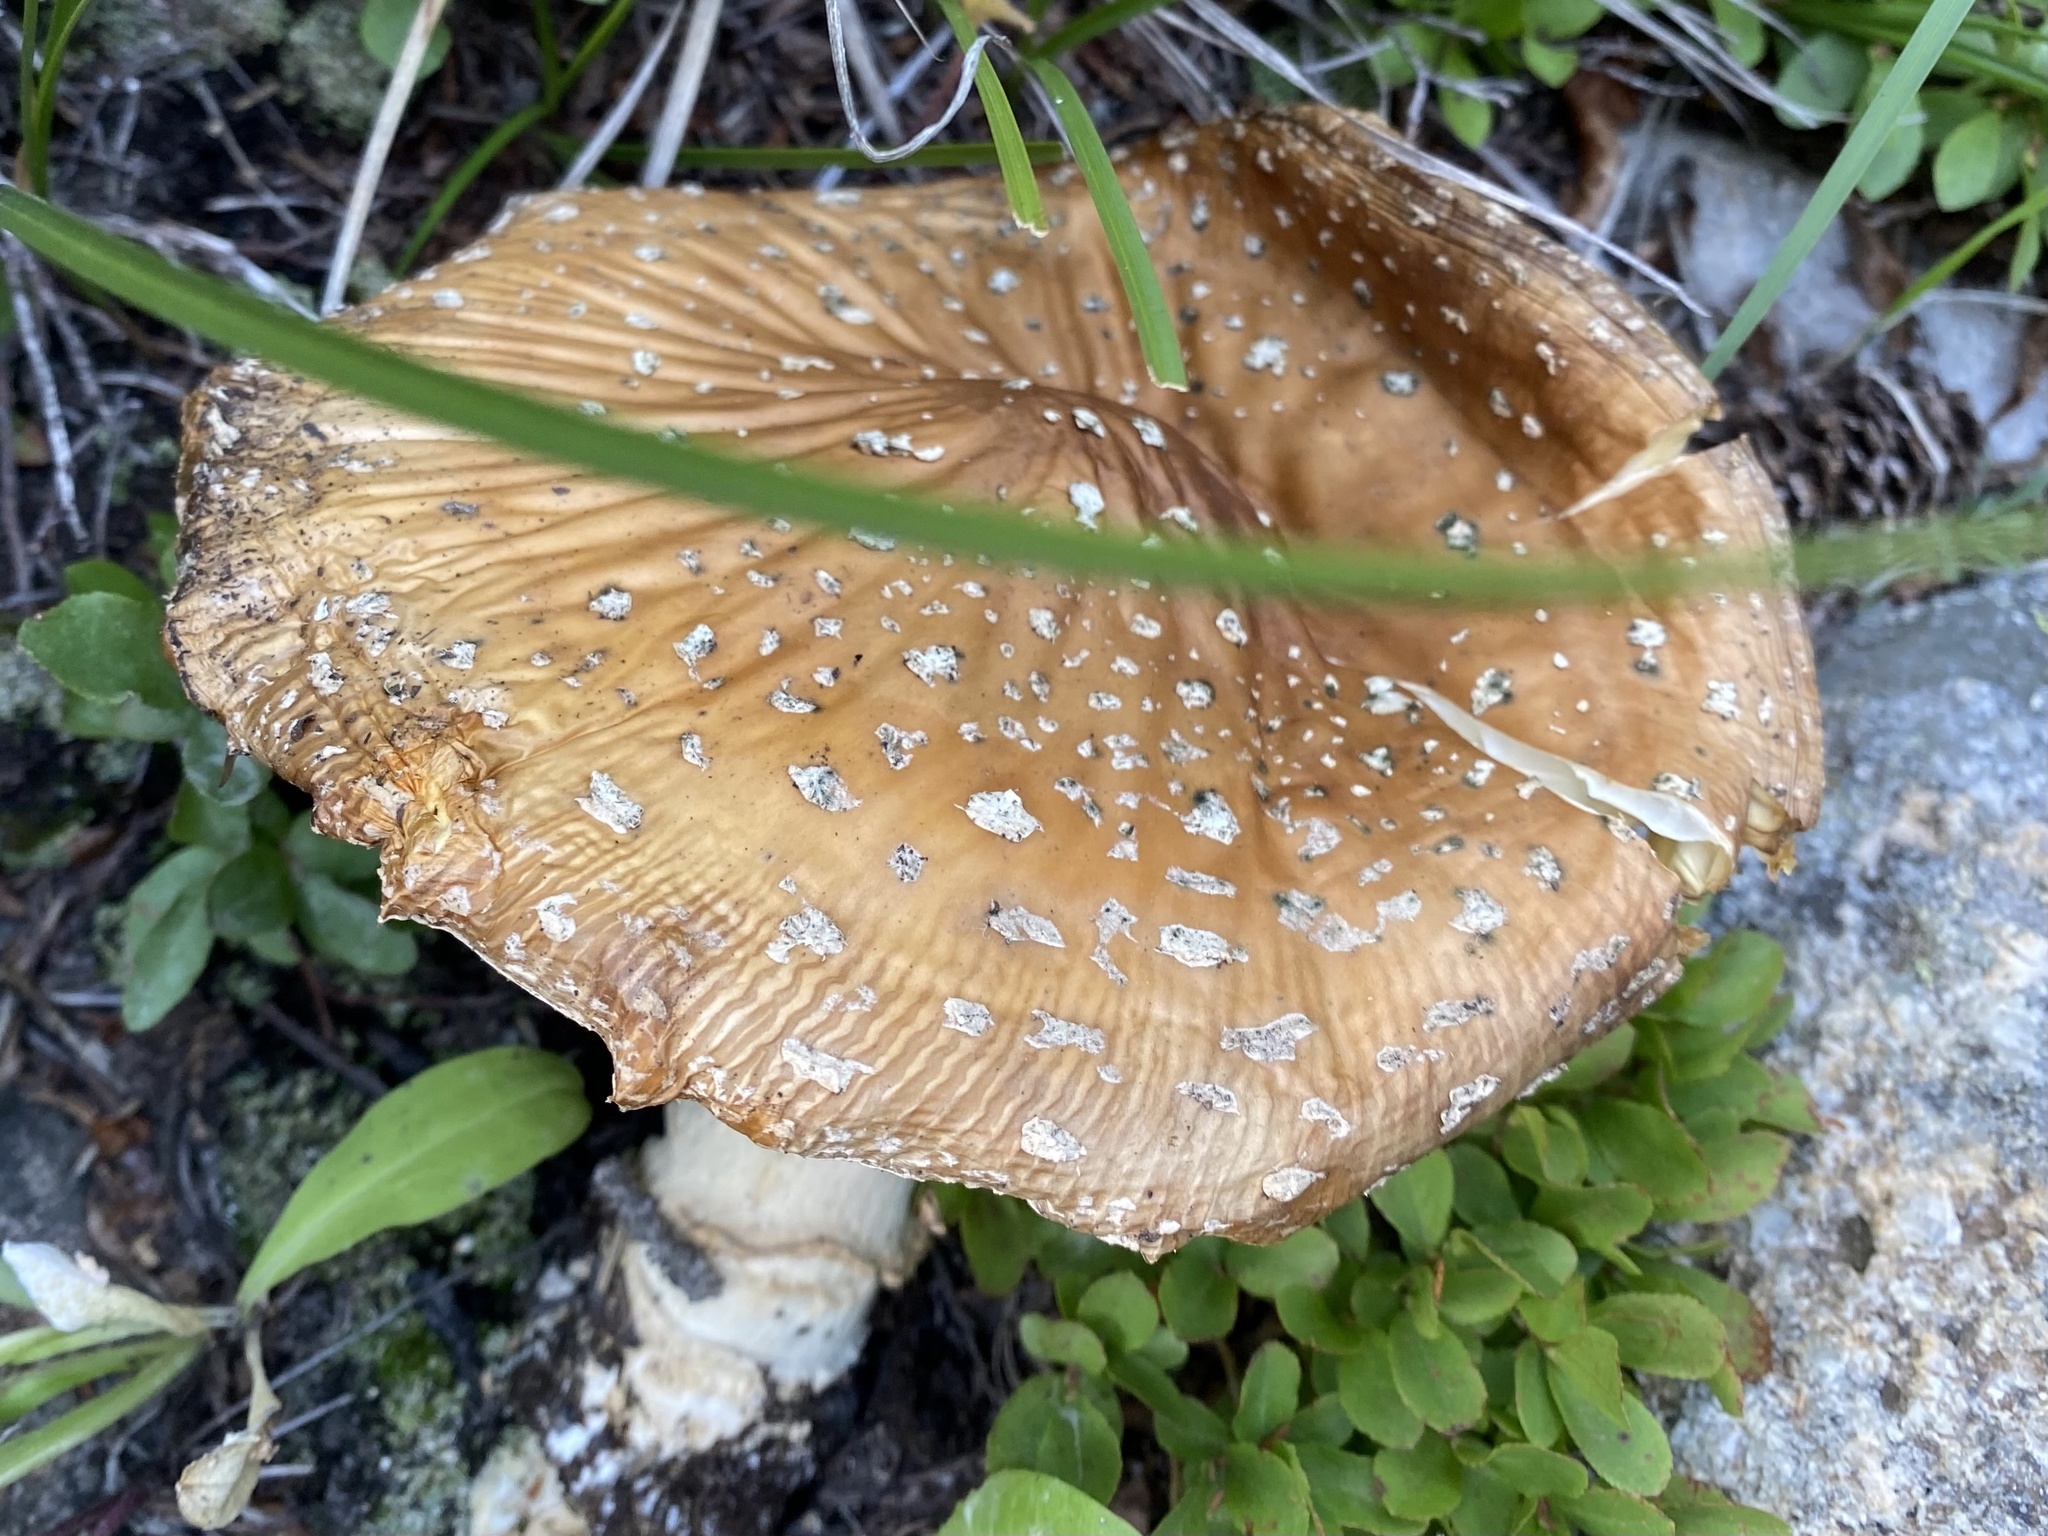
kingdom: Fungi
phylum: Basidiomycota
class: Agaricomycetes
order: Agaricales
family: Amanitaceae
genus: Amanita
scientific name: Amanita muscaria
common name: Fly agaric
